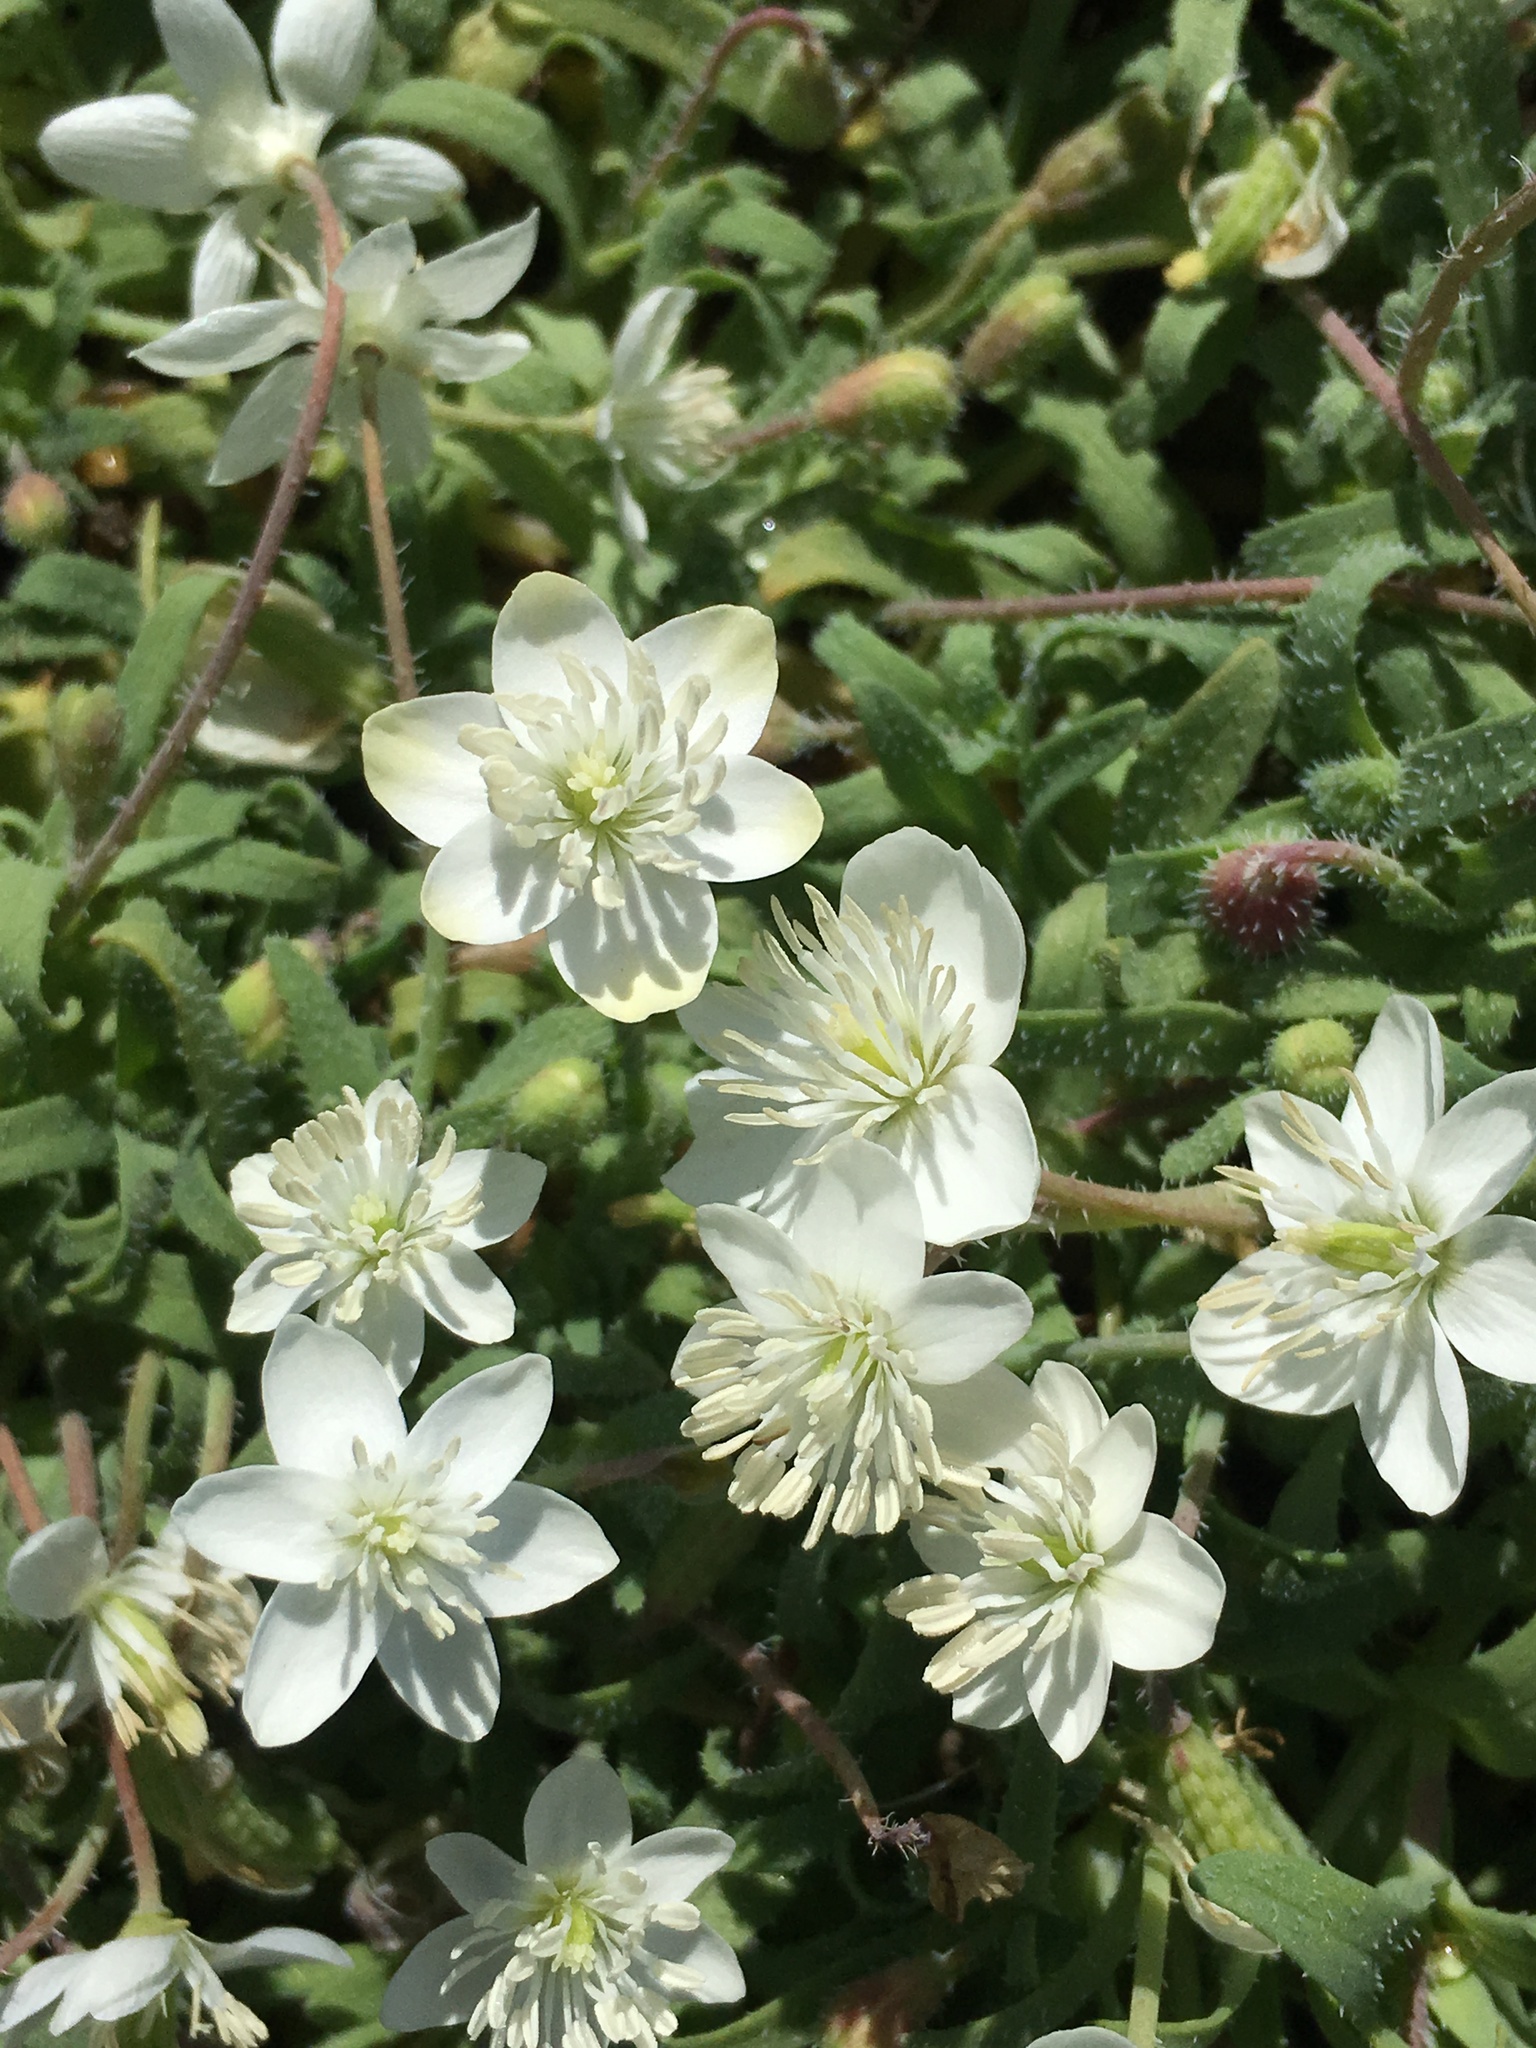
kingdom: Plantae
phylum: Tracheophyta
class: Magnoliopsida
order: Ranunculales
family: Papaveraceae
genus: Platystemon
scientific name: Platystemon californicus
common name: Cream-cups
